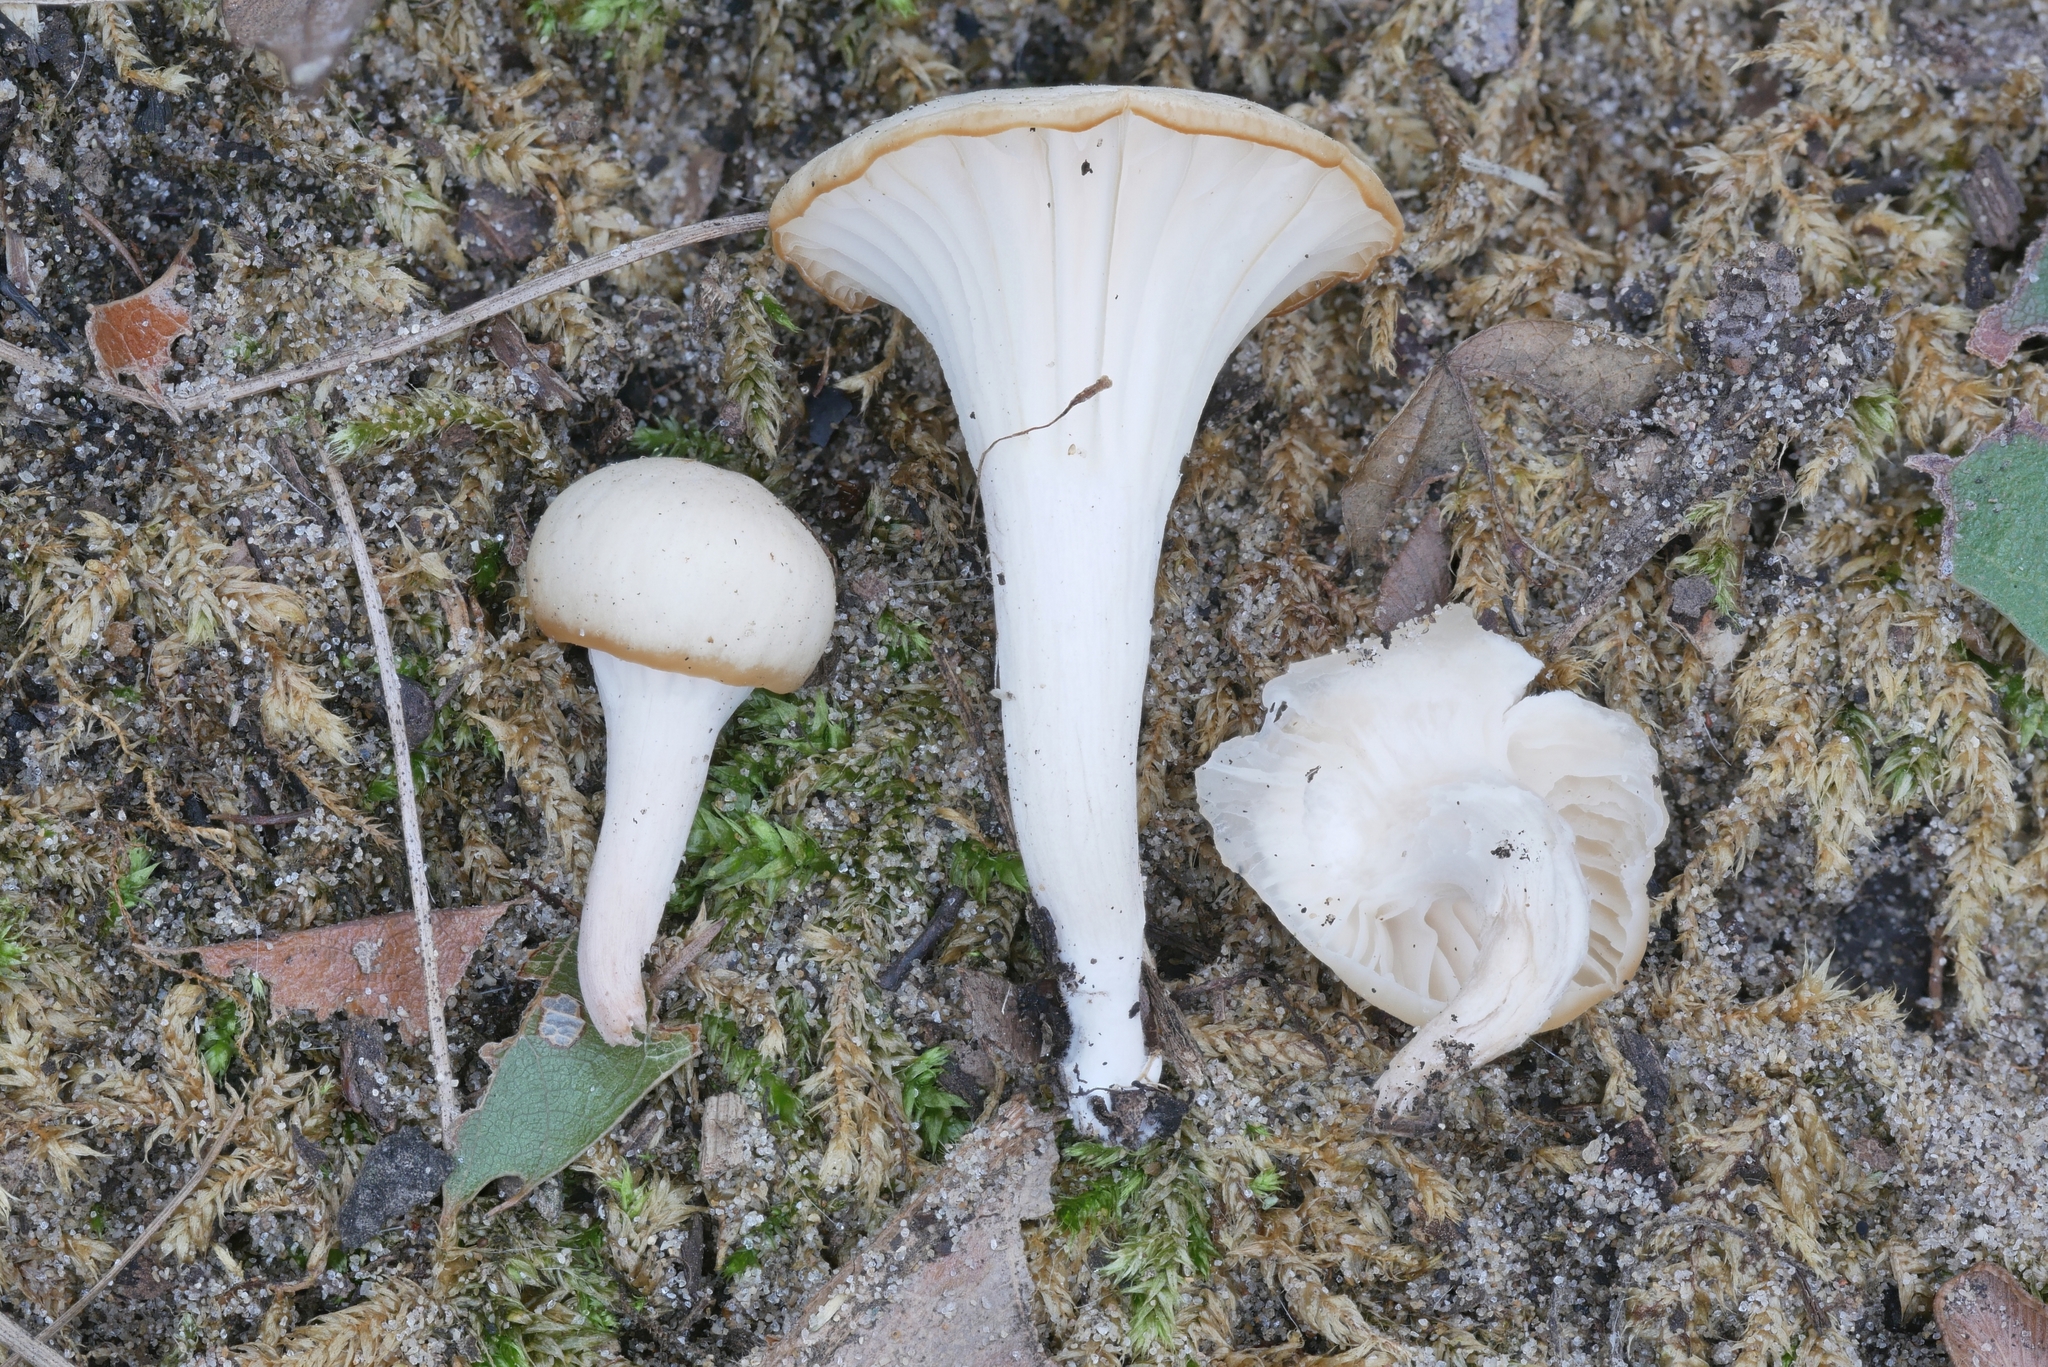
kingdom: Fungi
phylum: Basidiomycota
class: Agaricomycetes
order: Agaricales
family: Hygrophoraceae
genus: Cuphophyllus
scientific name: Cuphophyllus russocoriaceus
